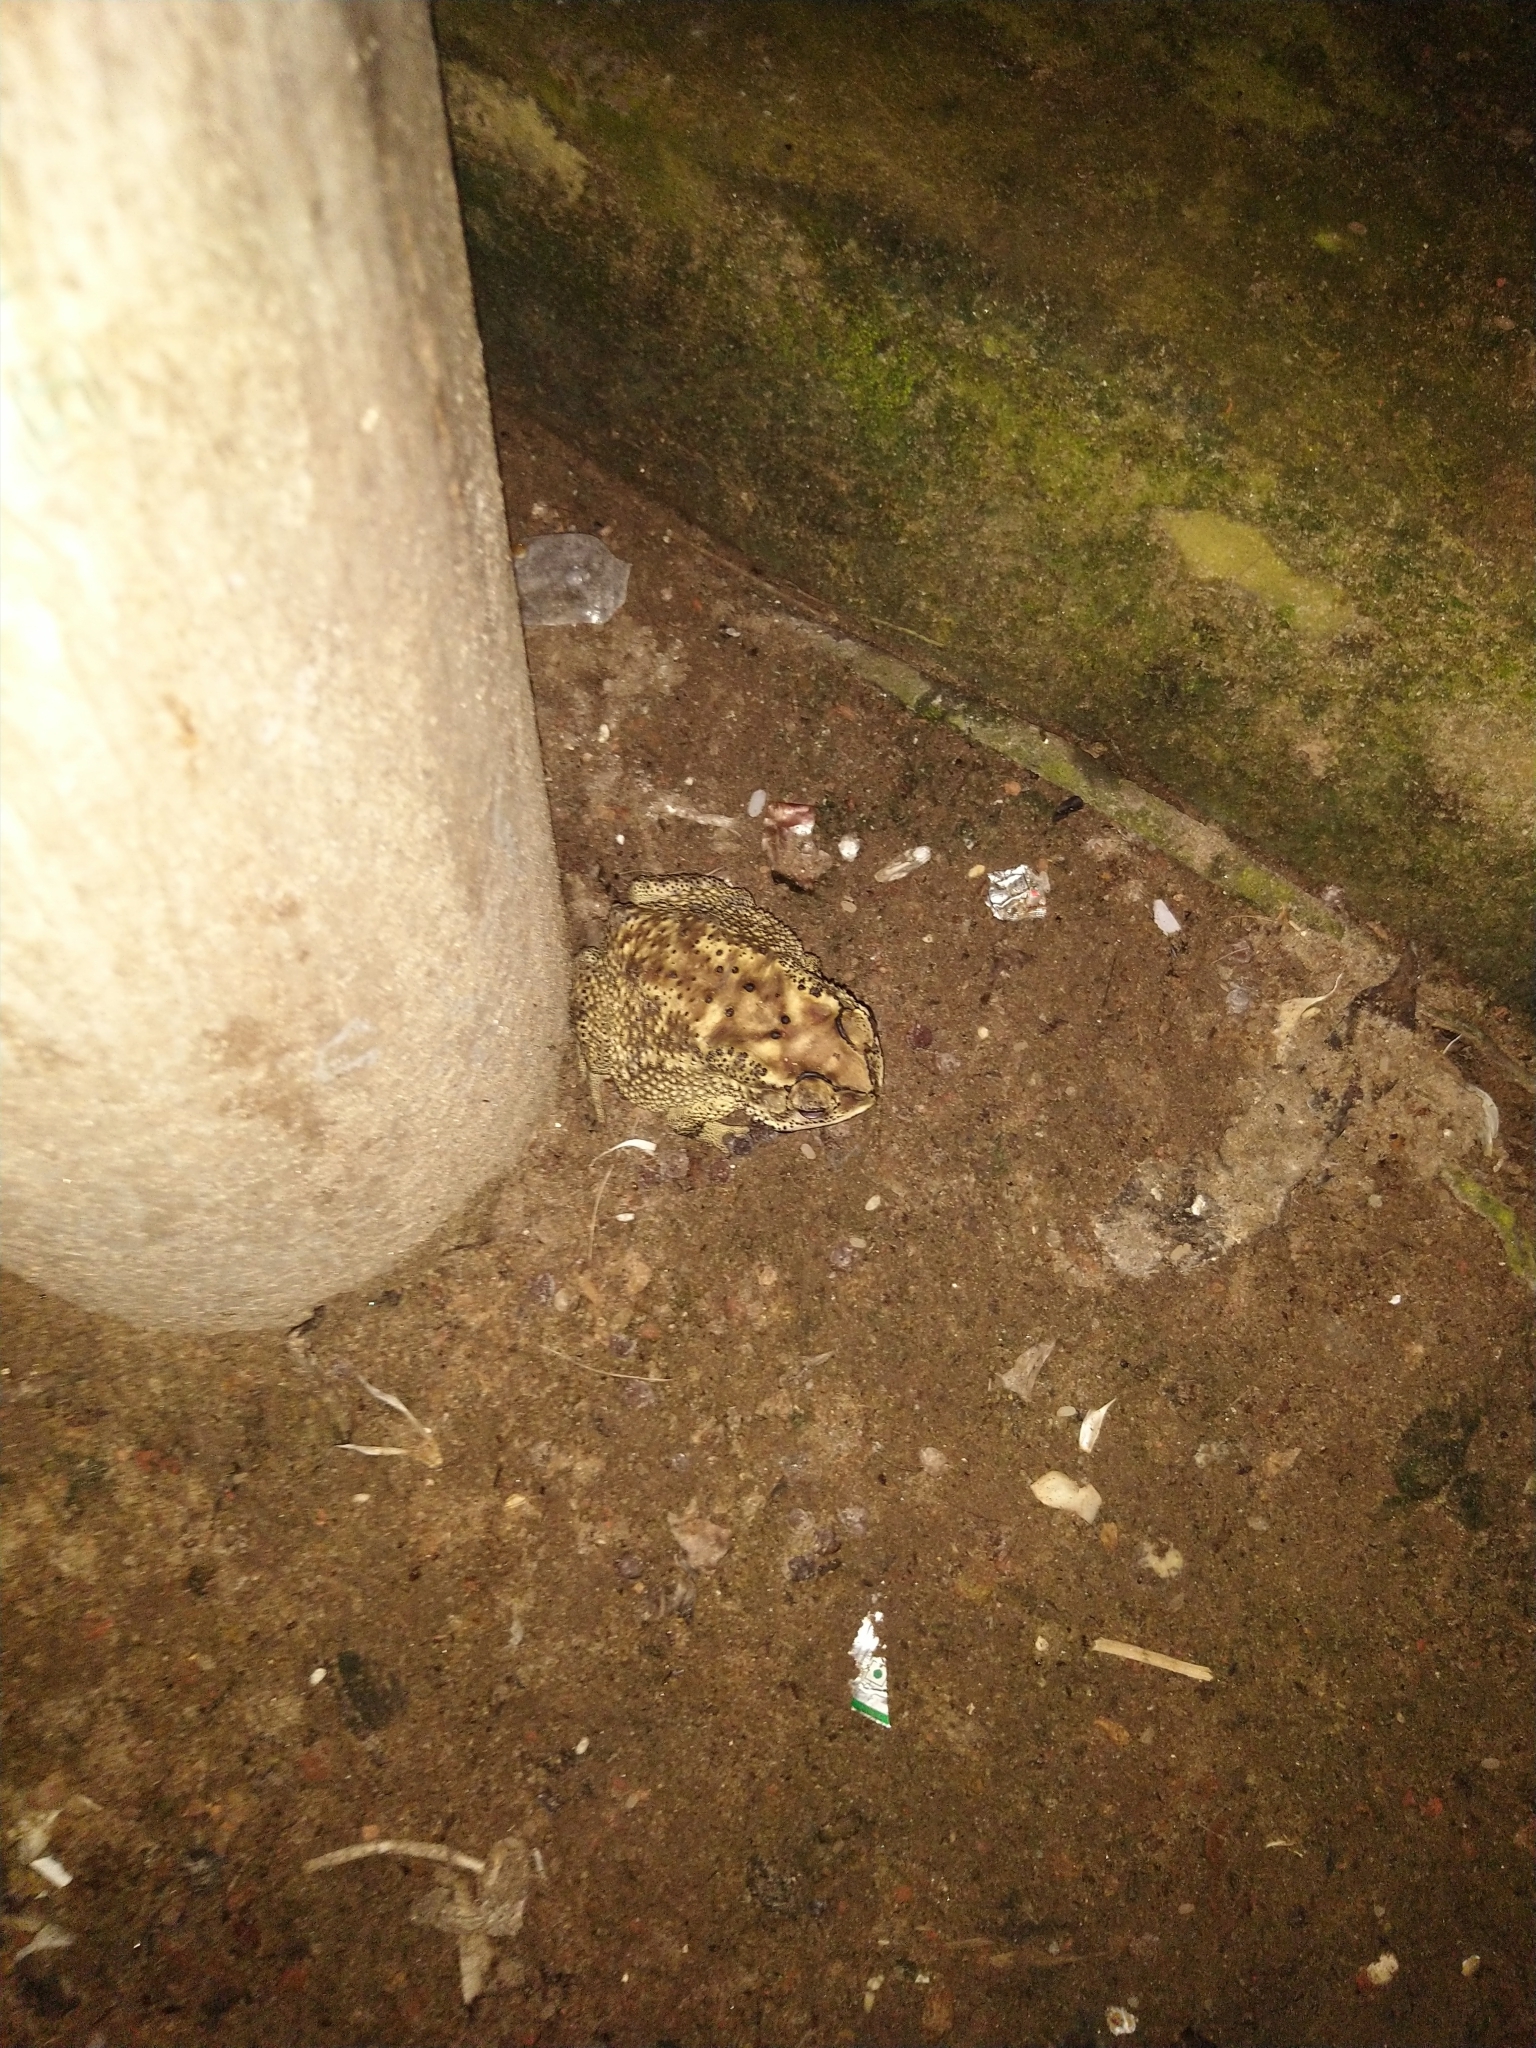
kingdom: Animalia
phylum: Chordata
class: Amphibia
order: Anura
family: Bufonidae
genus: Duttaphrynus
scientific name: Duttaphrynus melanostictus
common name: Common sunda toad
